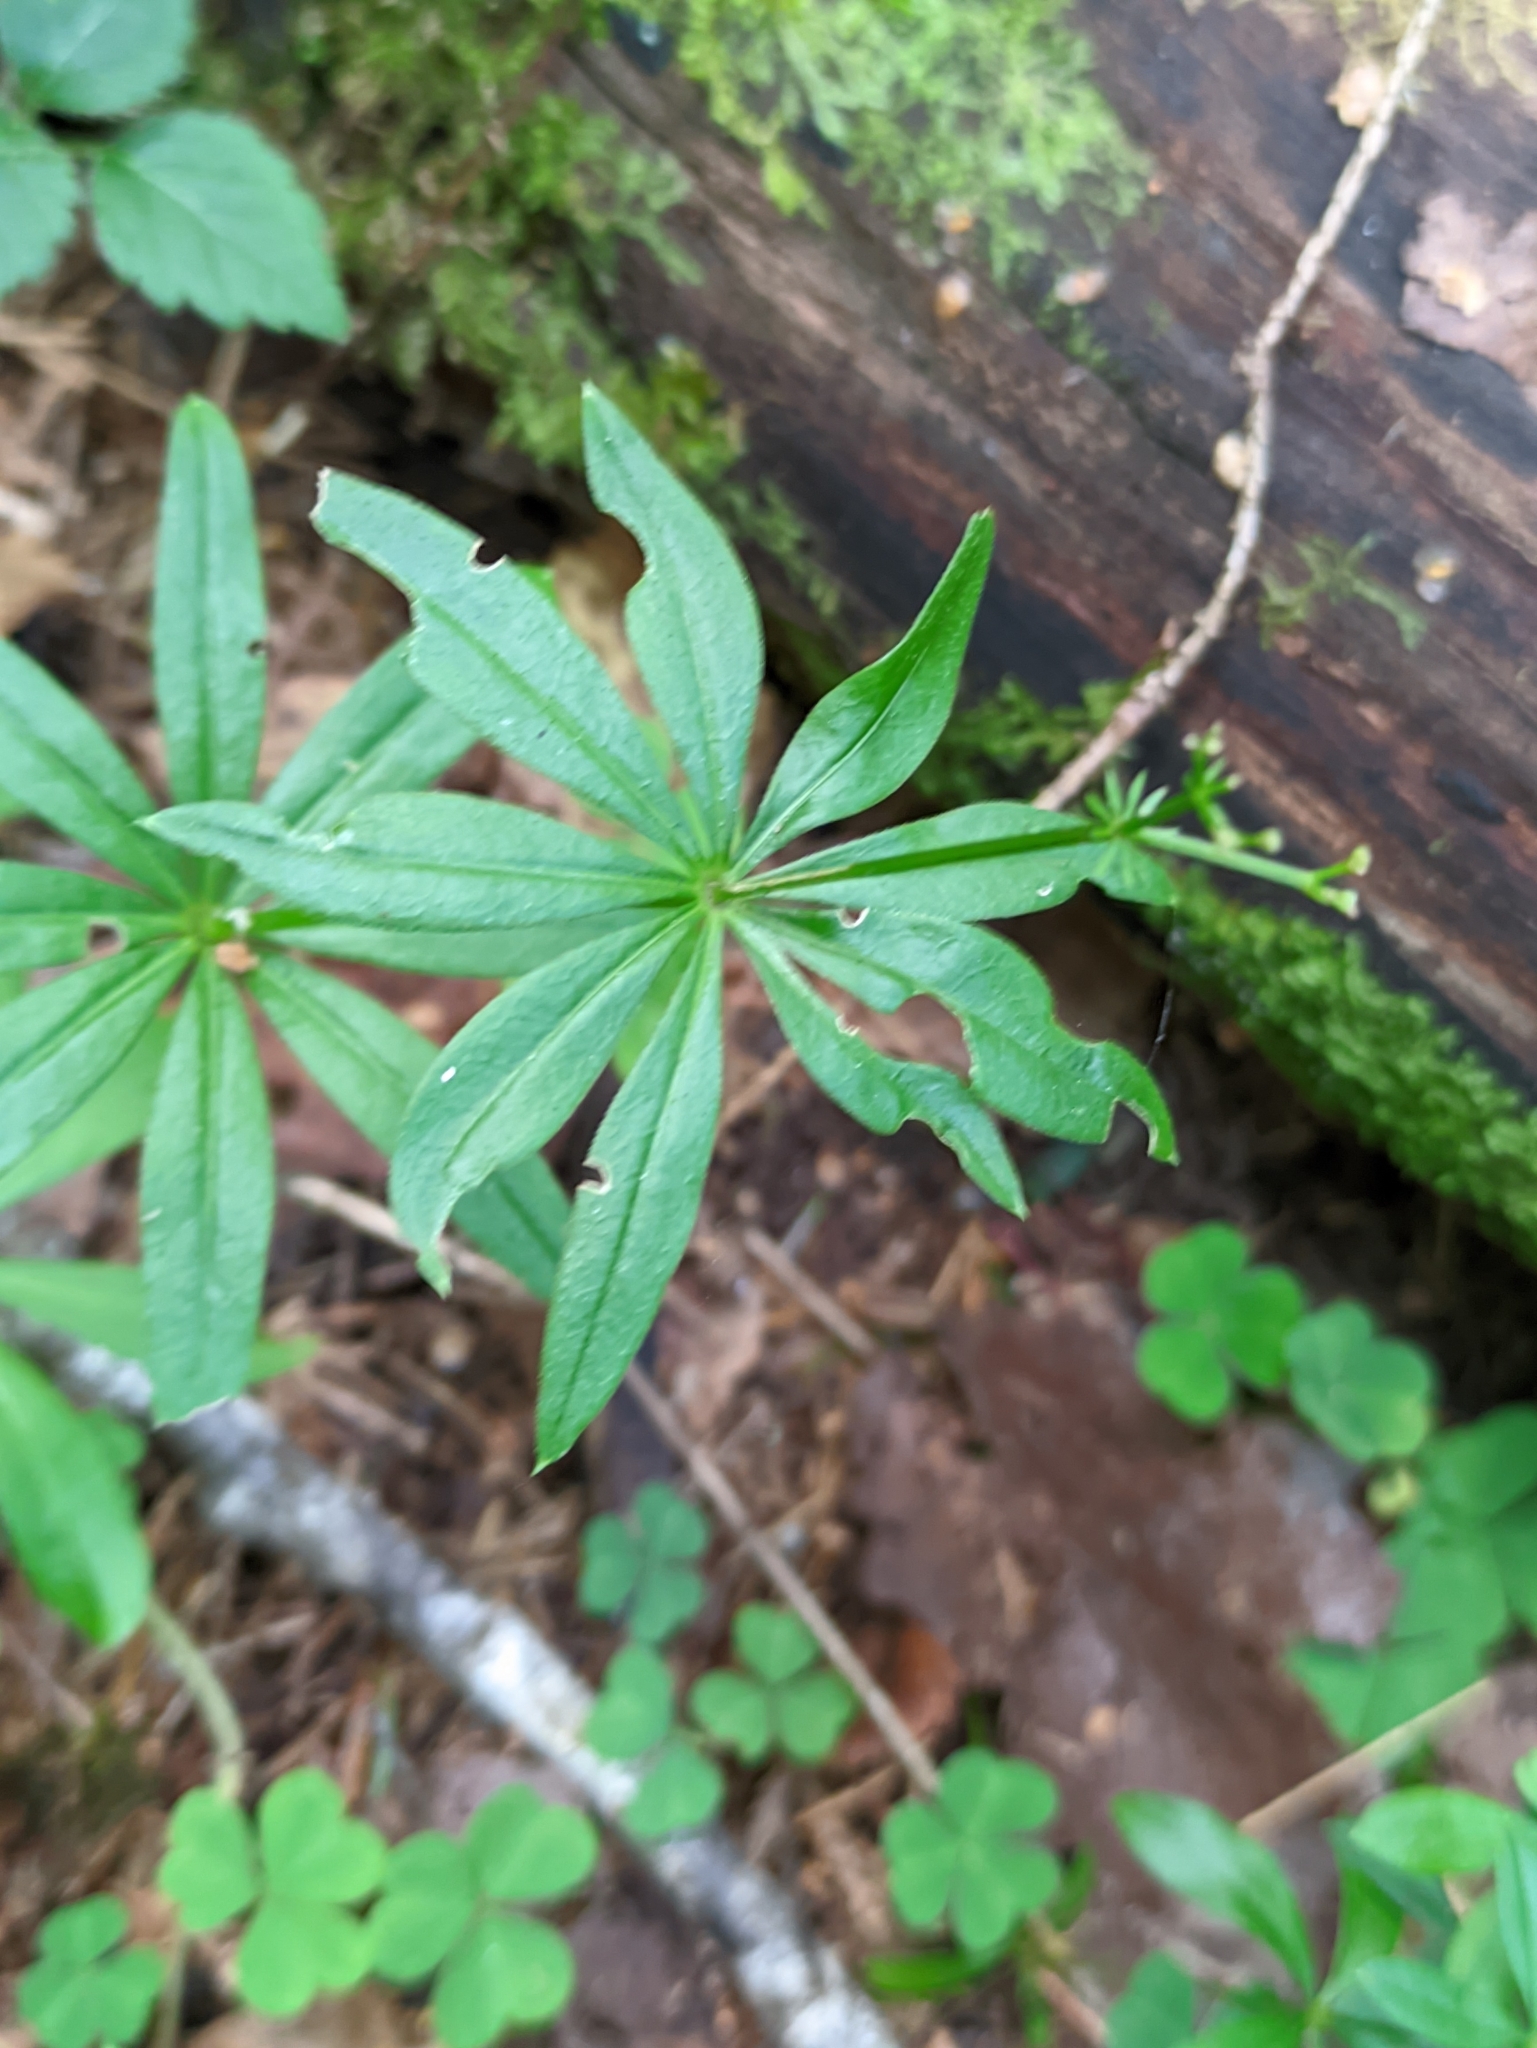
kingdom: Plantae
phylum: Tracheophyta
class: Magnoliopsida
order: Gentianales
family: Rubiaceae
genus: Galium
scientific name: Galium odoratum
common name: Sweet woodruff
